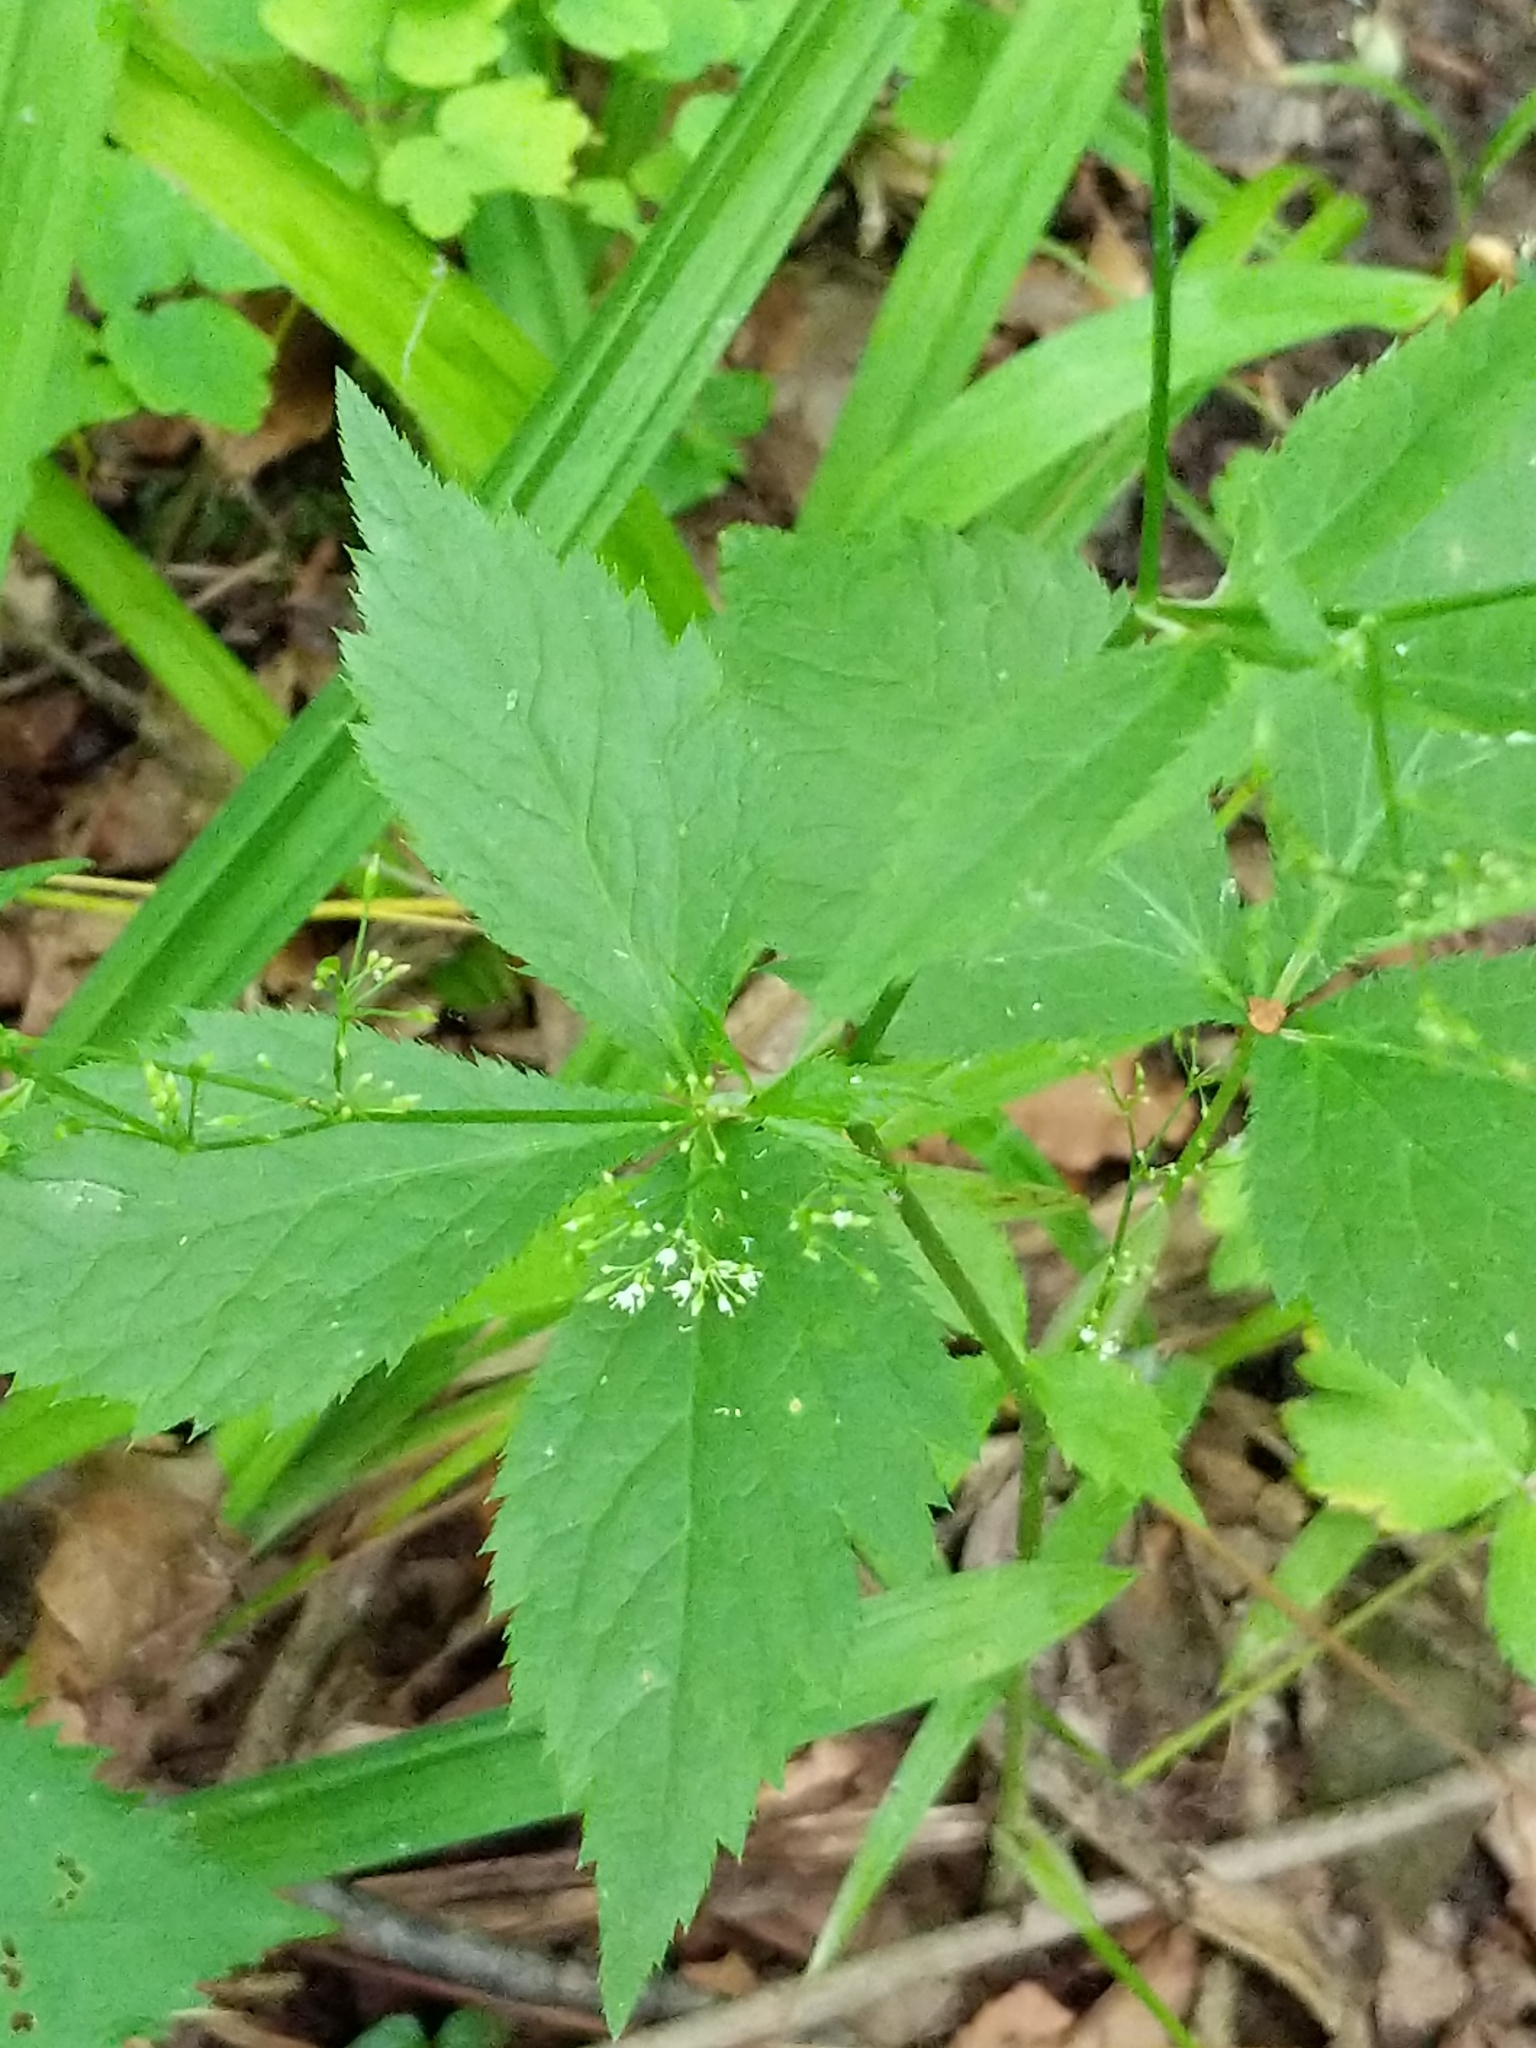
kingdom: Plantae
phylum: Tracheophyta
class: Magnoliopsida
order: Apiales
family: Apiaceae
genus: Cryptotaenia
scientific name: Cryptotaenia canadensis
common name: Honewort
